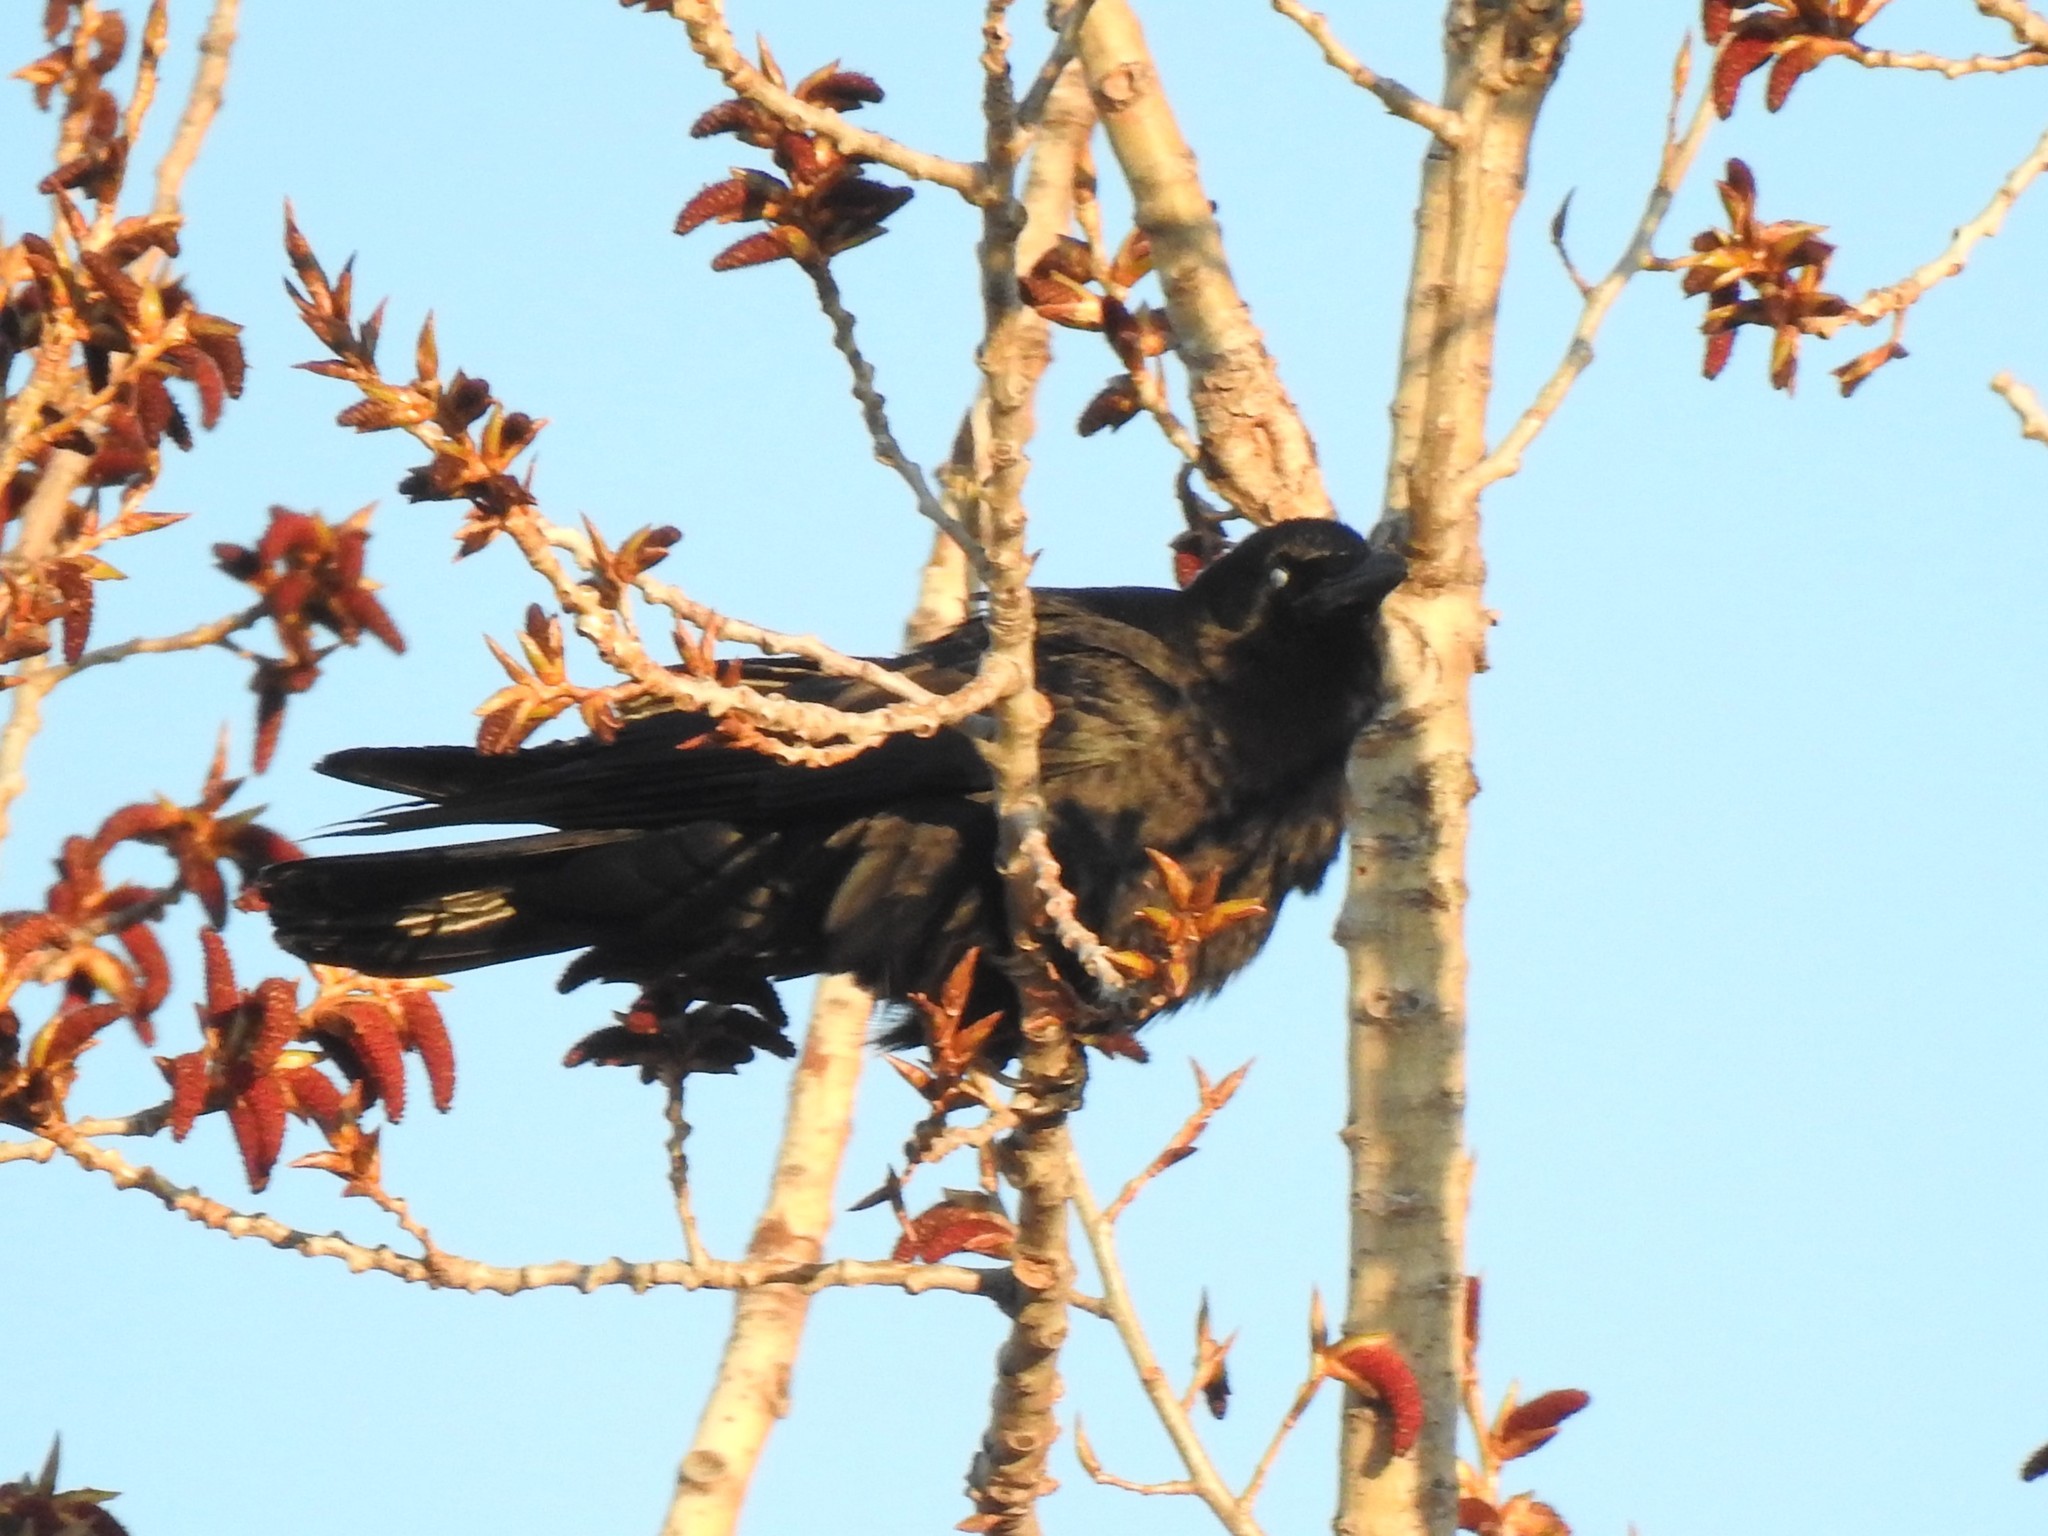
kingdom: Animalia
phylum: Chordata
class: Aves
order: Passeriformes
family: Corvidae
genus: Corvus
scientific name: Corvus brachyrhynchos
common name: American crow
